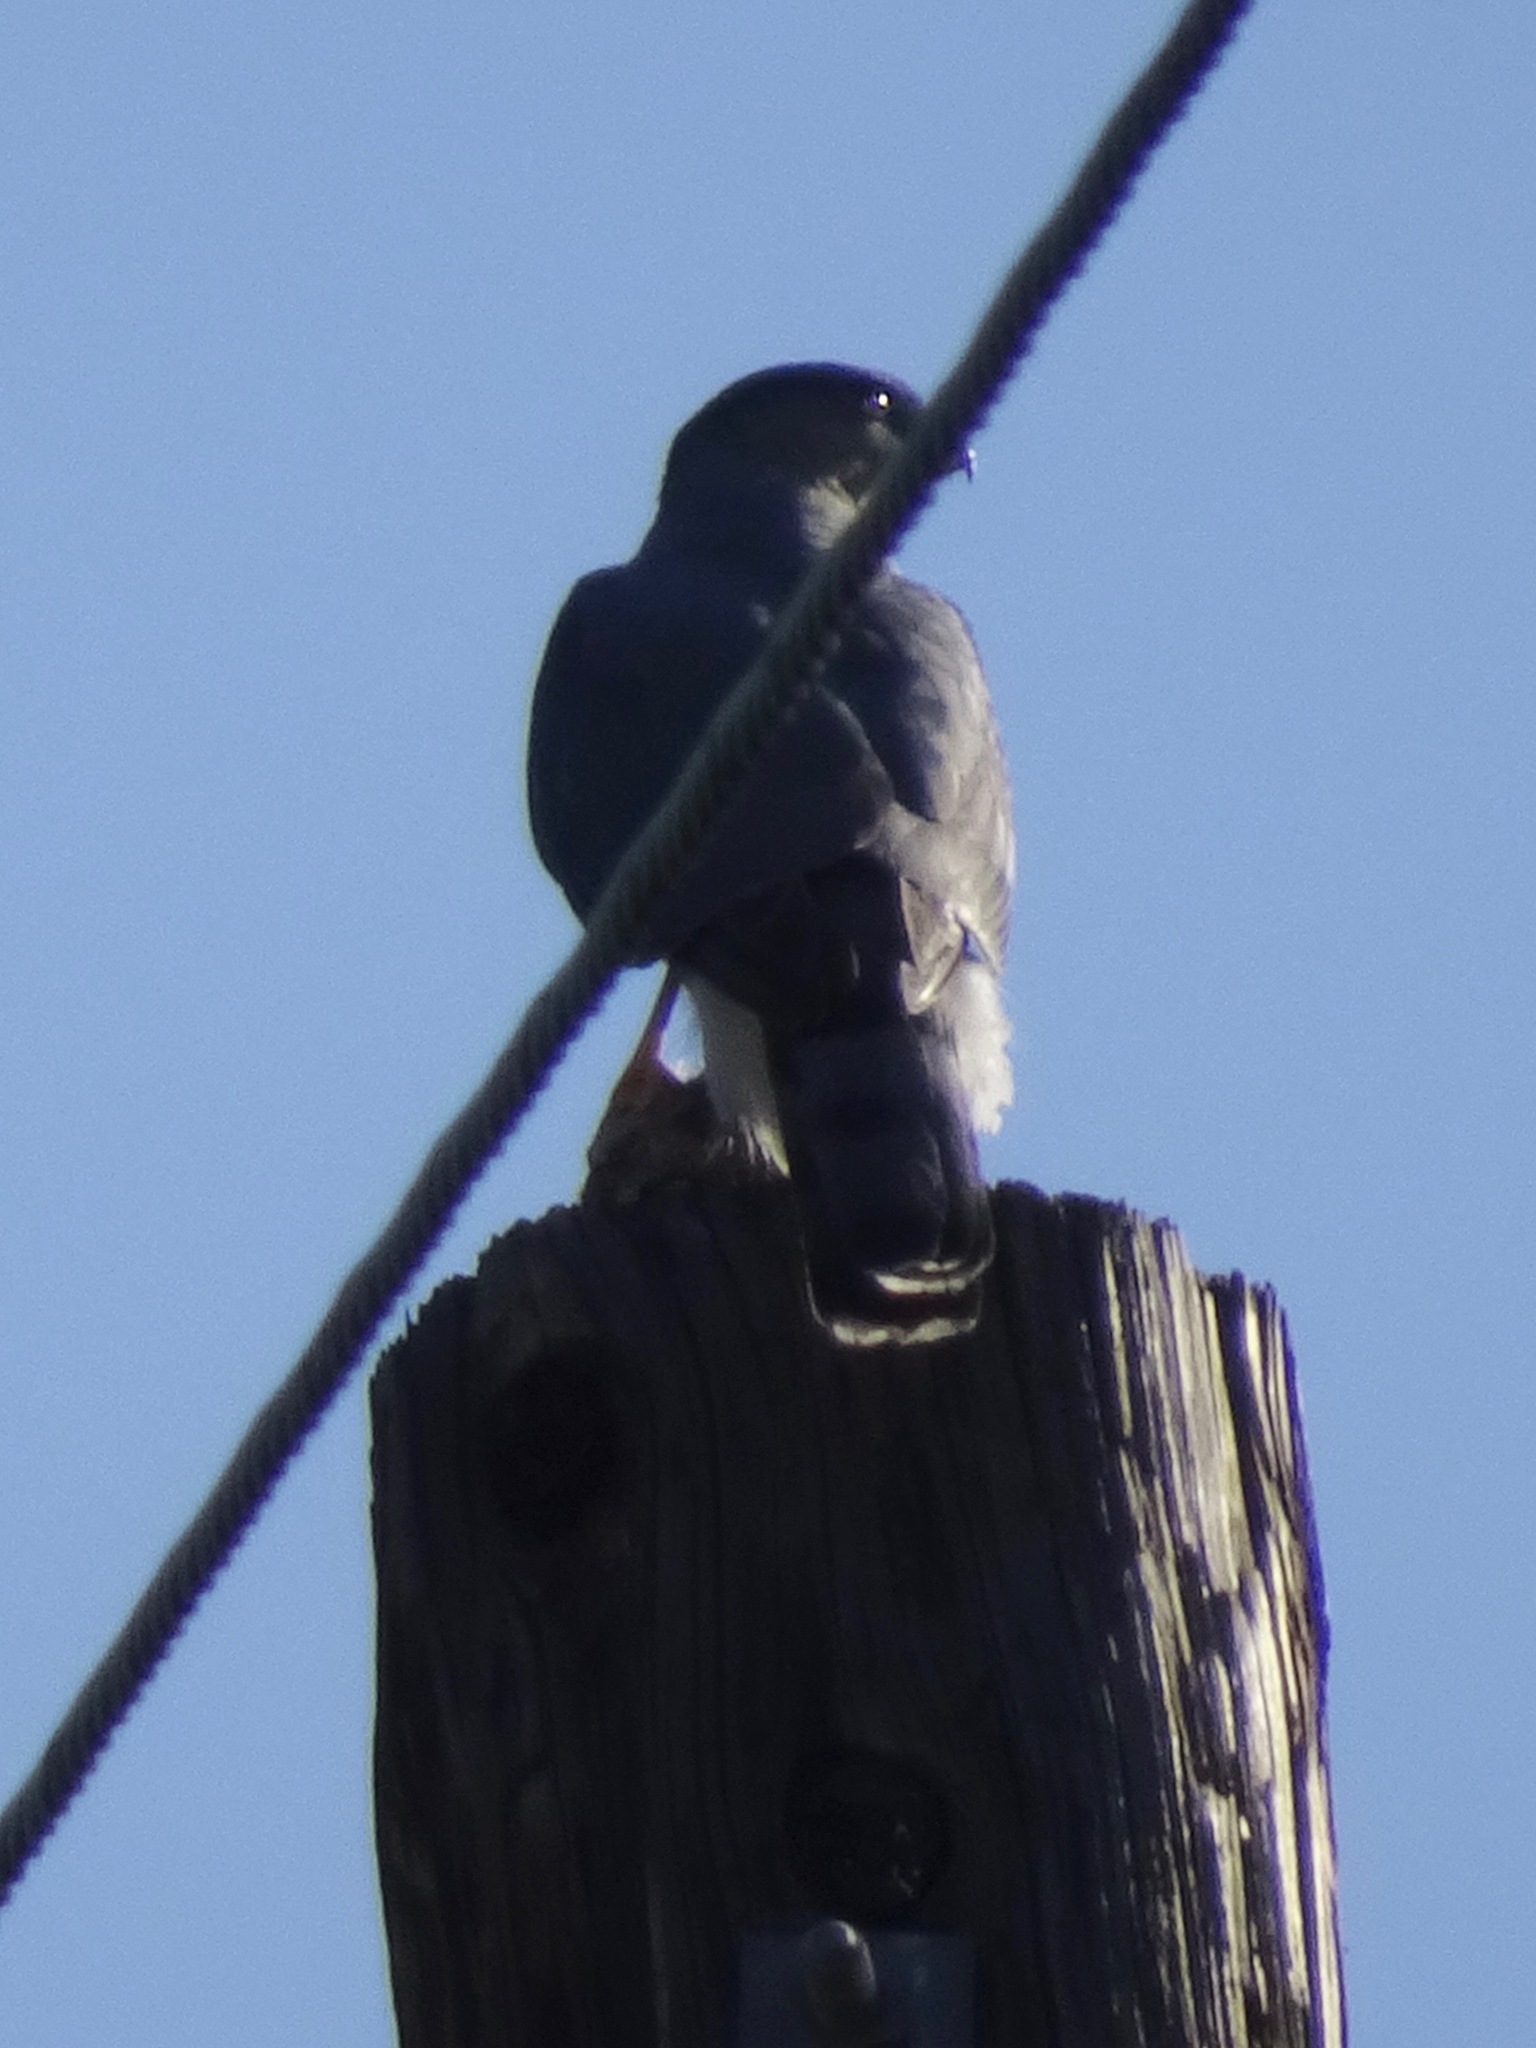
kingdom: Animalia
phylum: Chordata
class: Aves
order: Accipitriformes
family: Accipitridae
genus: Accipiter
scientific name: Accipiter cooperii
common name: Cooper's hawk
